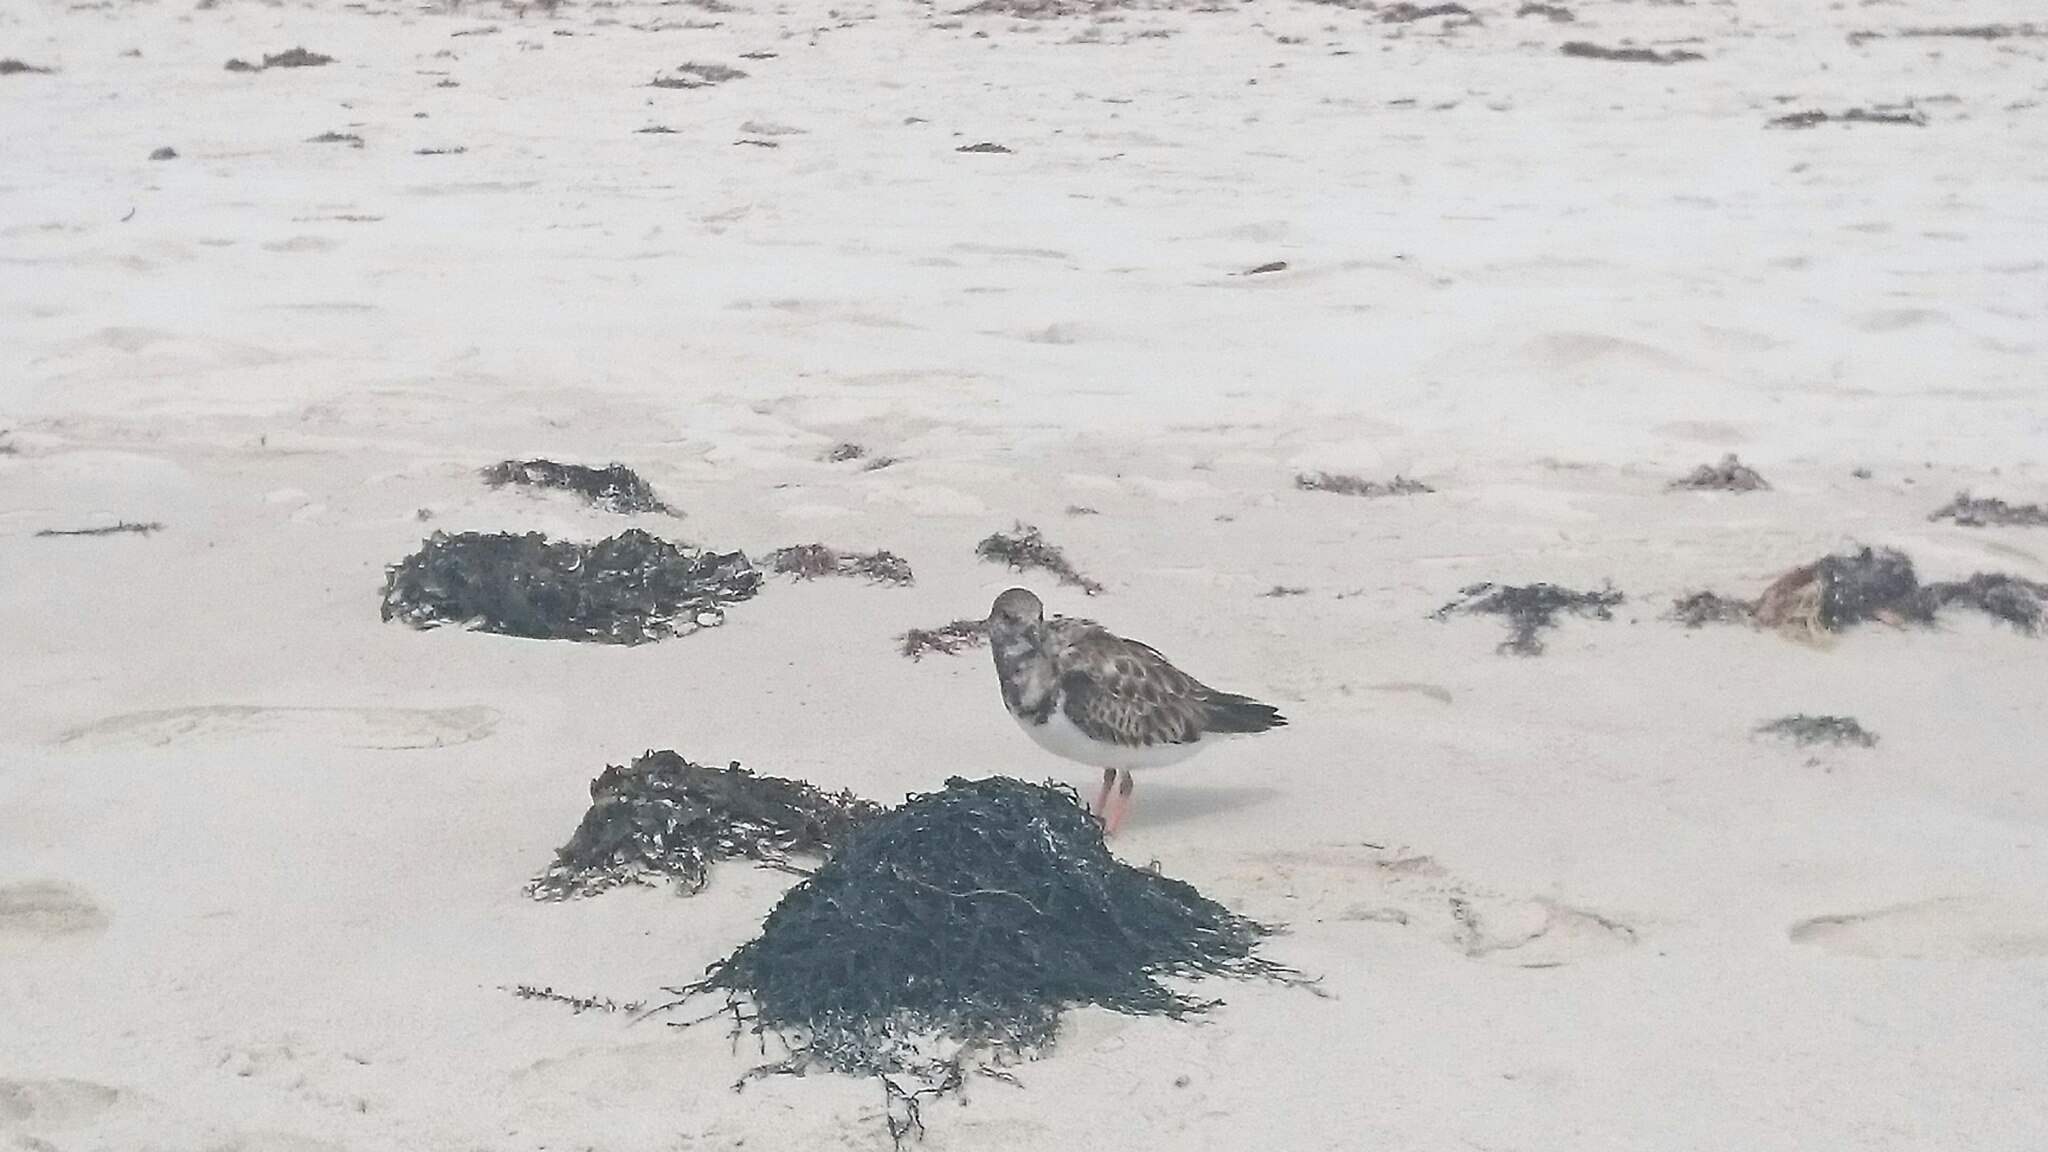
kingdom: Animalia
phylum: Chordata
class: Aves
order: Charadriiformes
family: Scolopacidae
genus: Arenaria
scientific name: Arenaria interpres
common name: Ruddy turnstone
